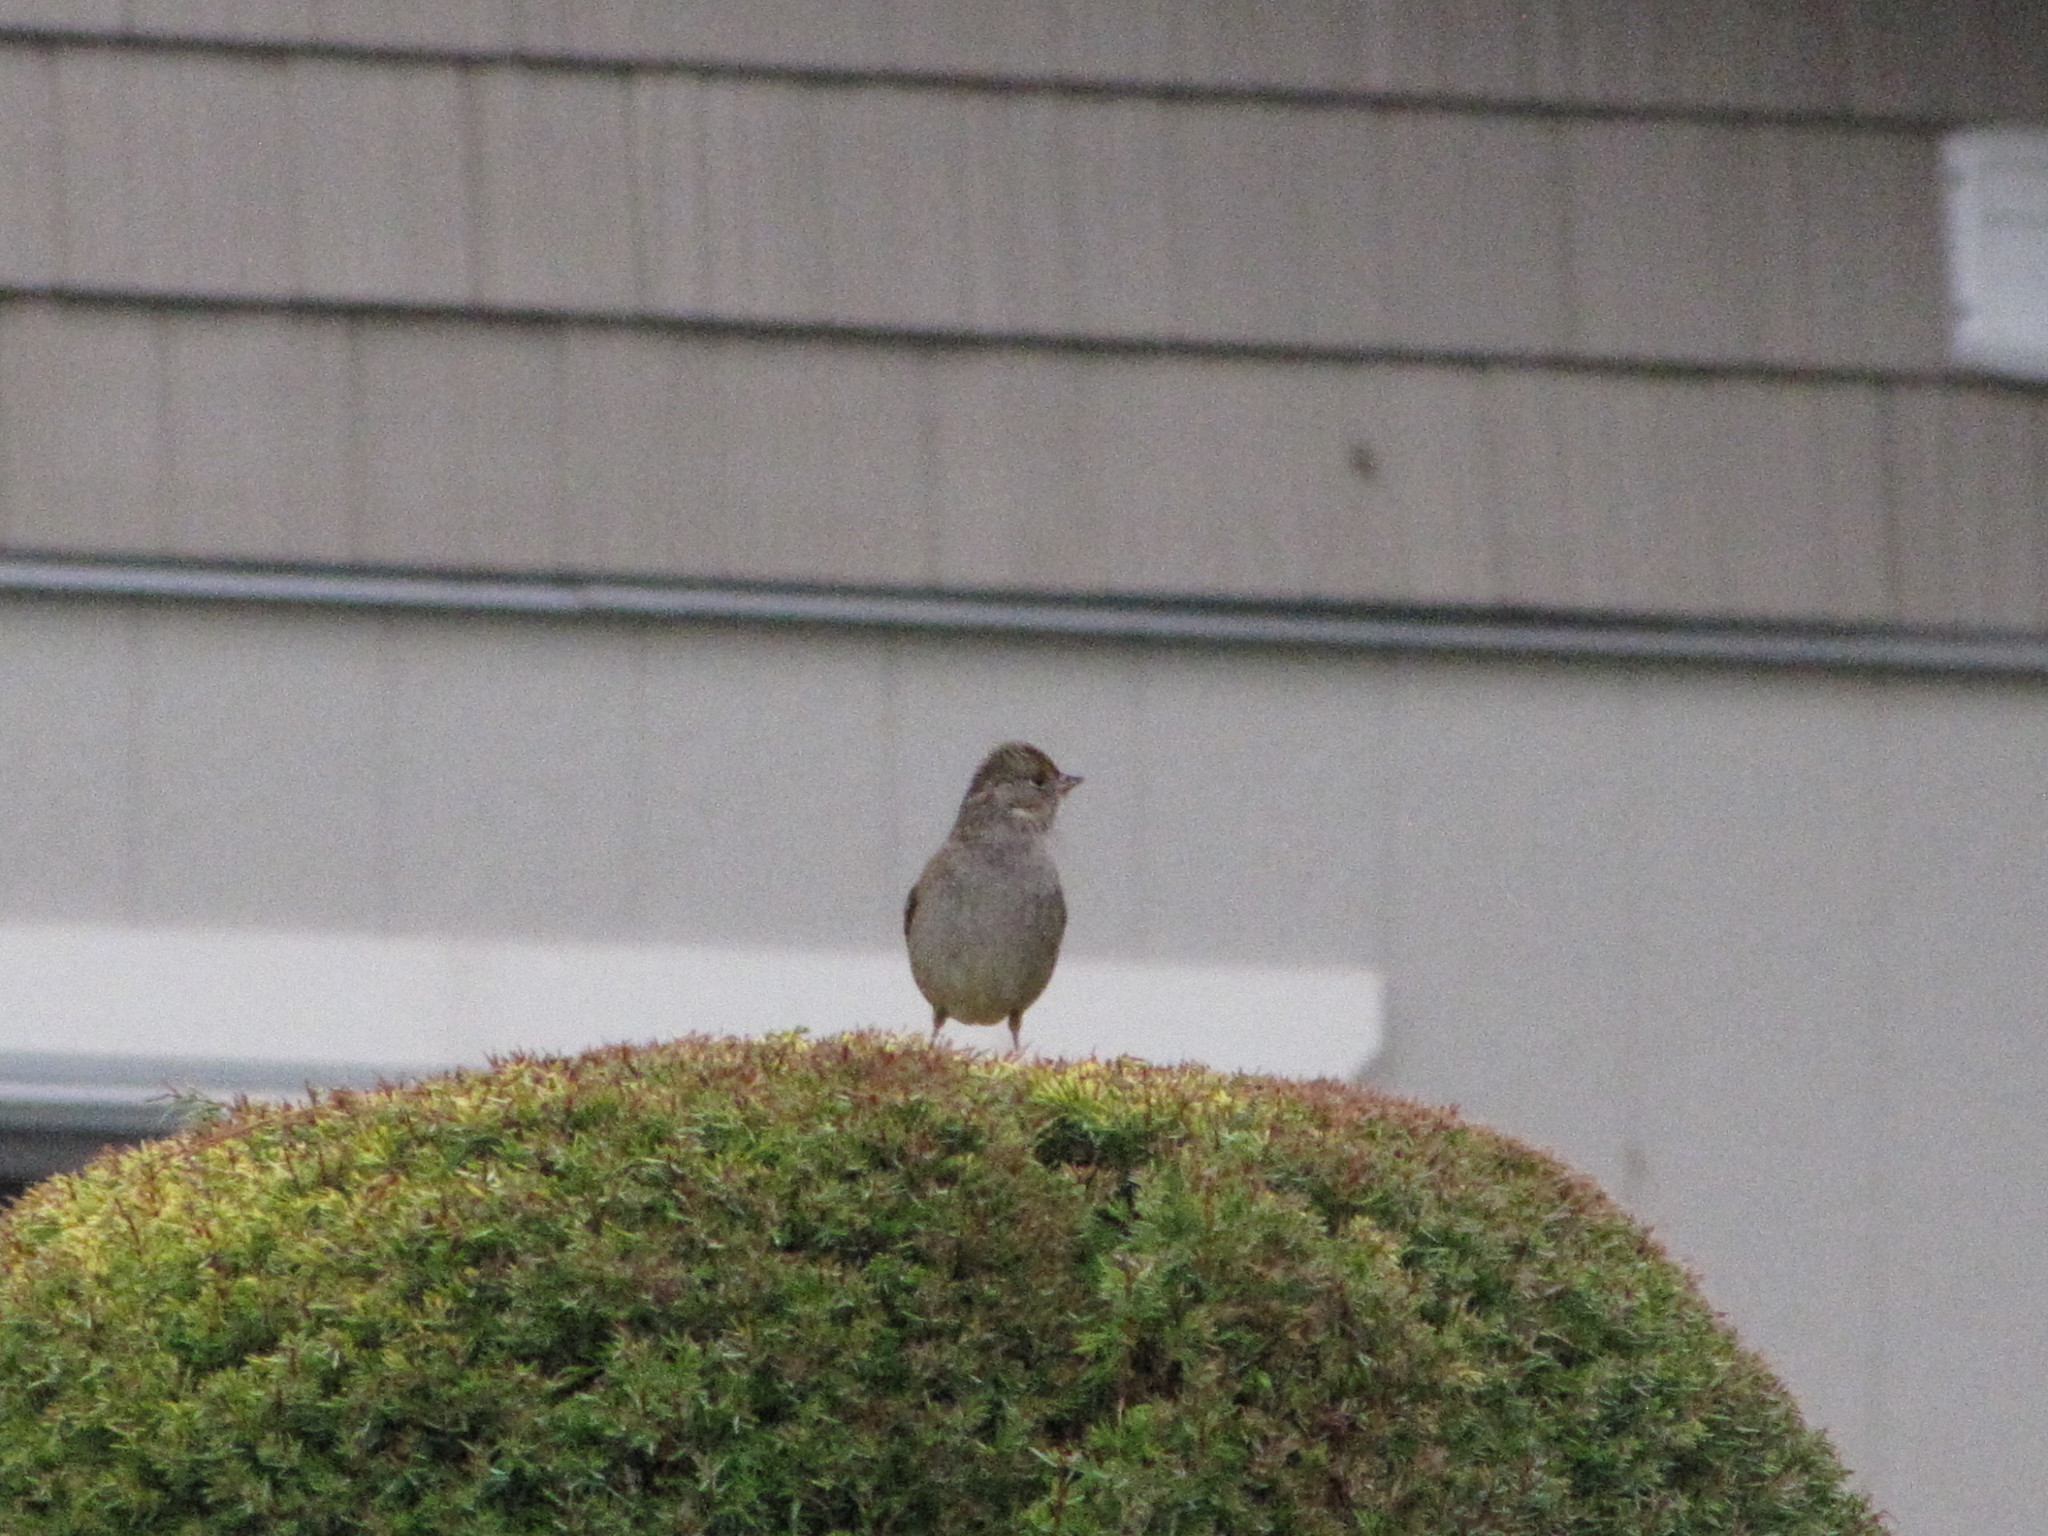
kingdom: Animalia
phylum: Chordata
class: Aves
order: Passeriformes
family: Passerellidae
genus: Zonotrichia
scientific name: Zonotrichia atricapilla
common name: Golden-crowned sparrow
